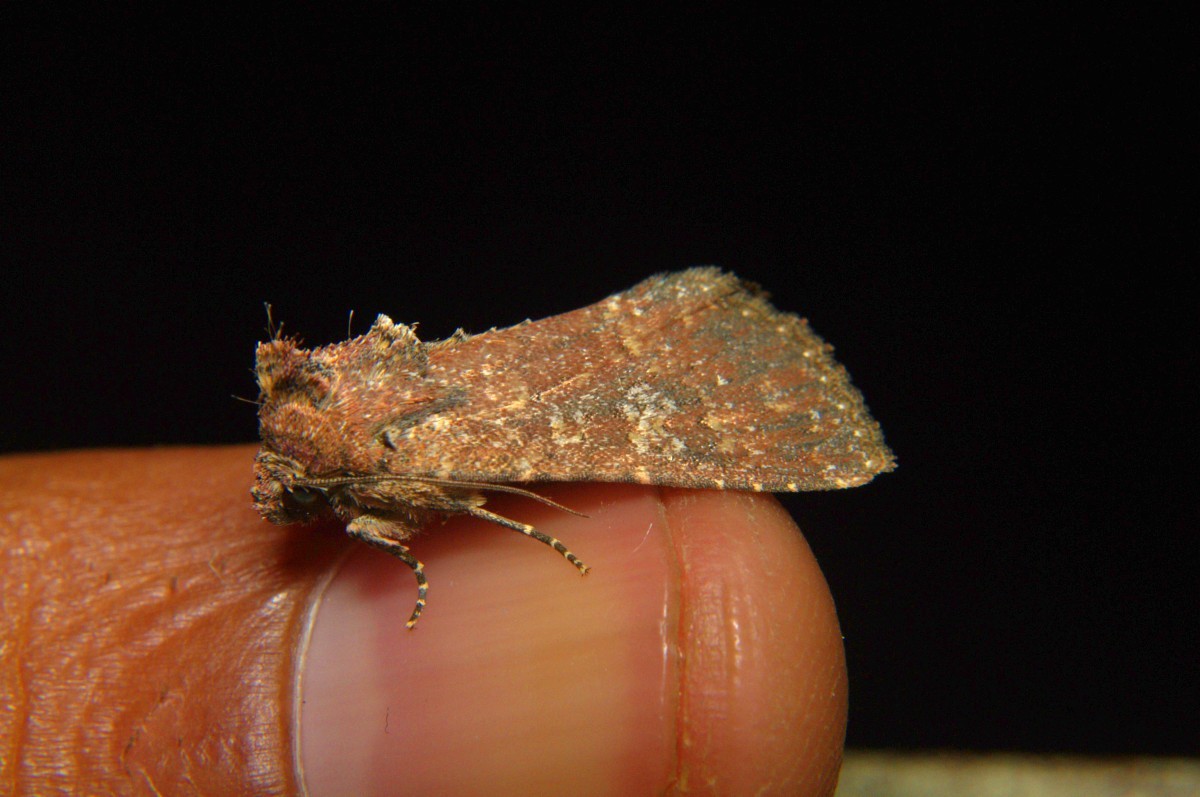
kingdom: Animalia
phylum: Arthropoda
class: Insecta
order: Lepidoptera
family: Noctuidae
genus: Condica
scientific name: Condica illecta
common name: Cutworm
